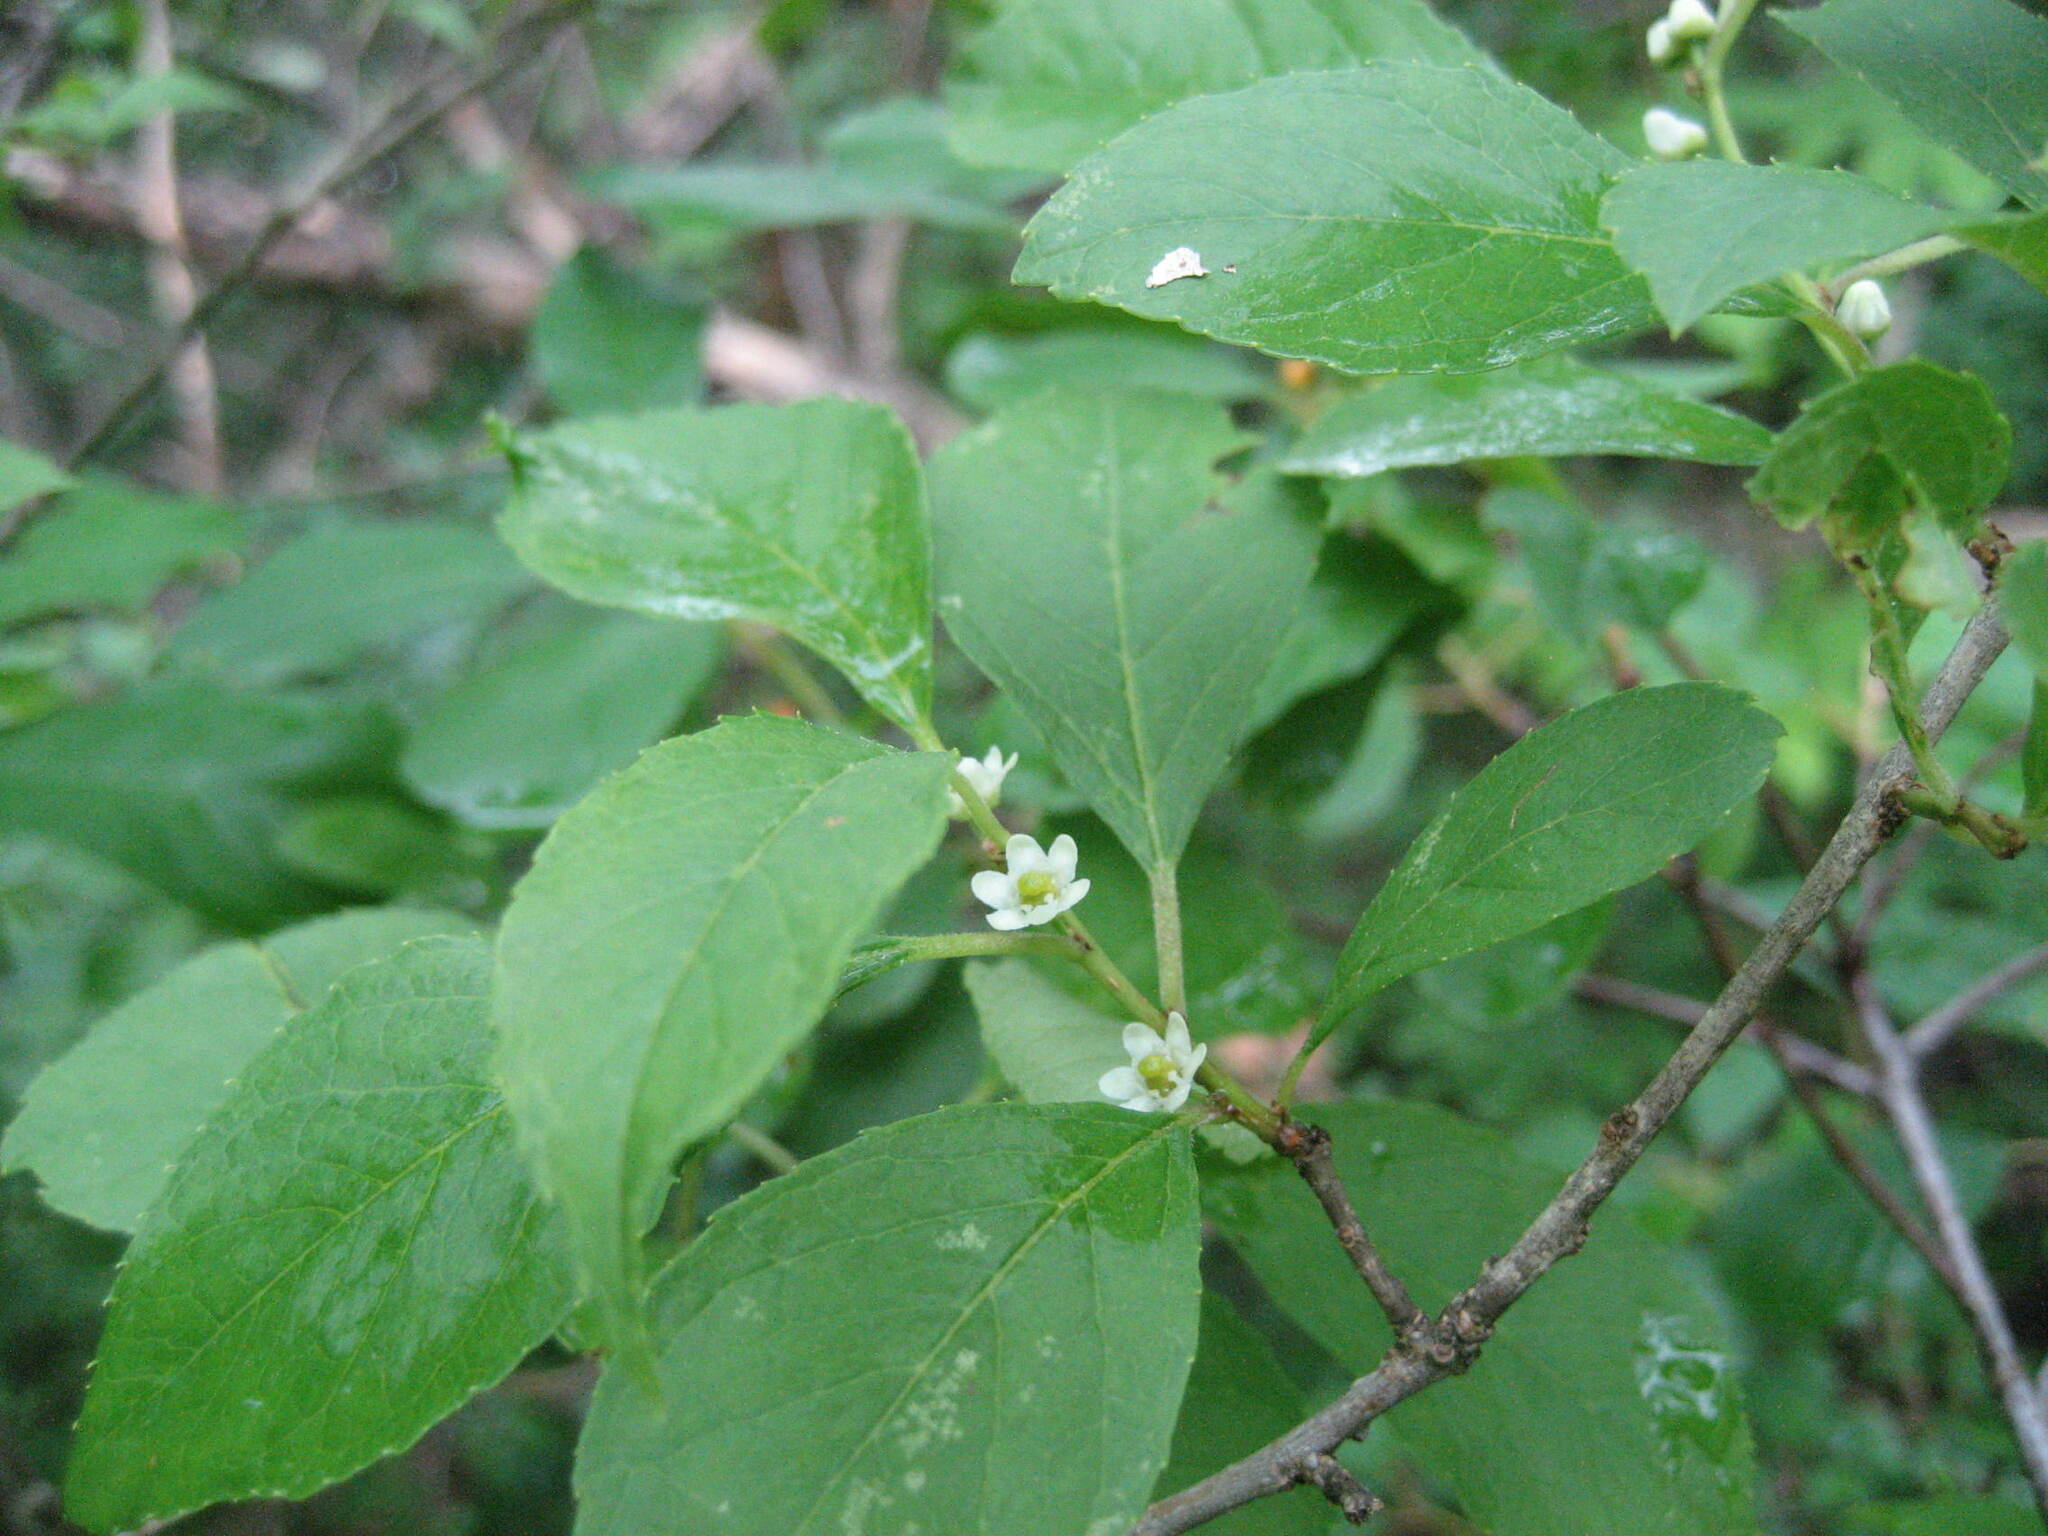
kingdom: Plantae
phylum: Tracheophyta
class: Magnoliopsida
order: Aquifoliales
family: Aquifoliaceae
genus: Ilex
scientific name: Ilex verticillata
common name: Virginia winterberry
